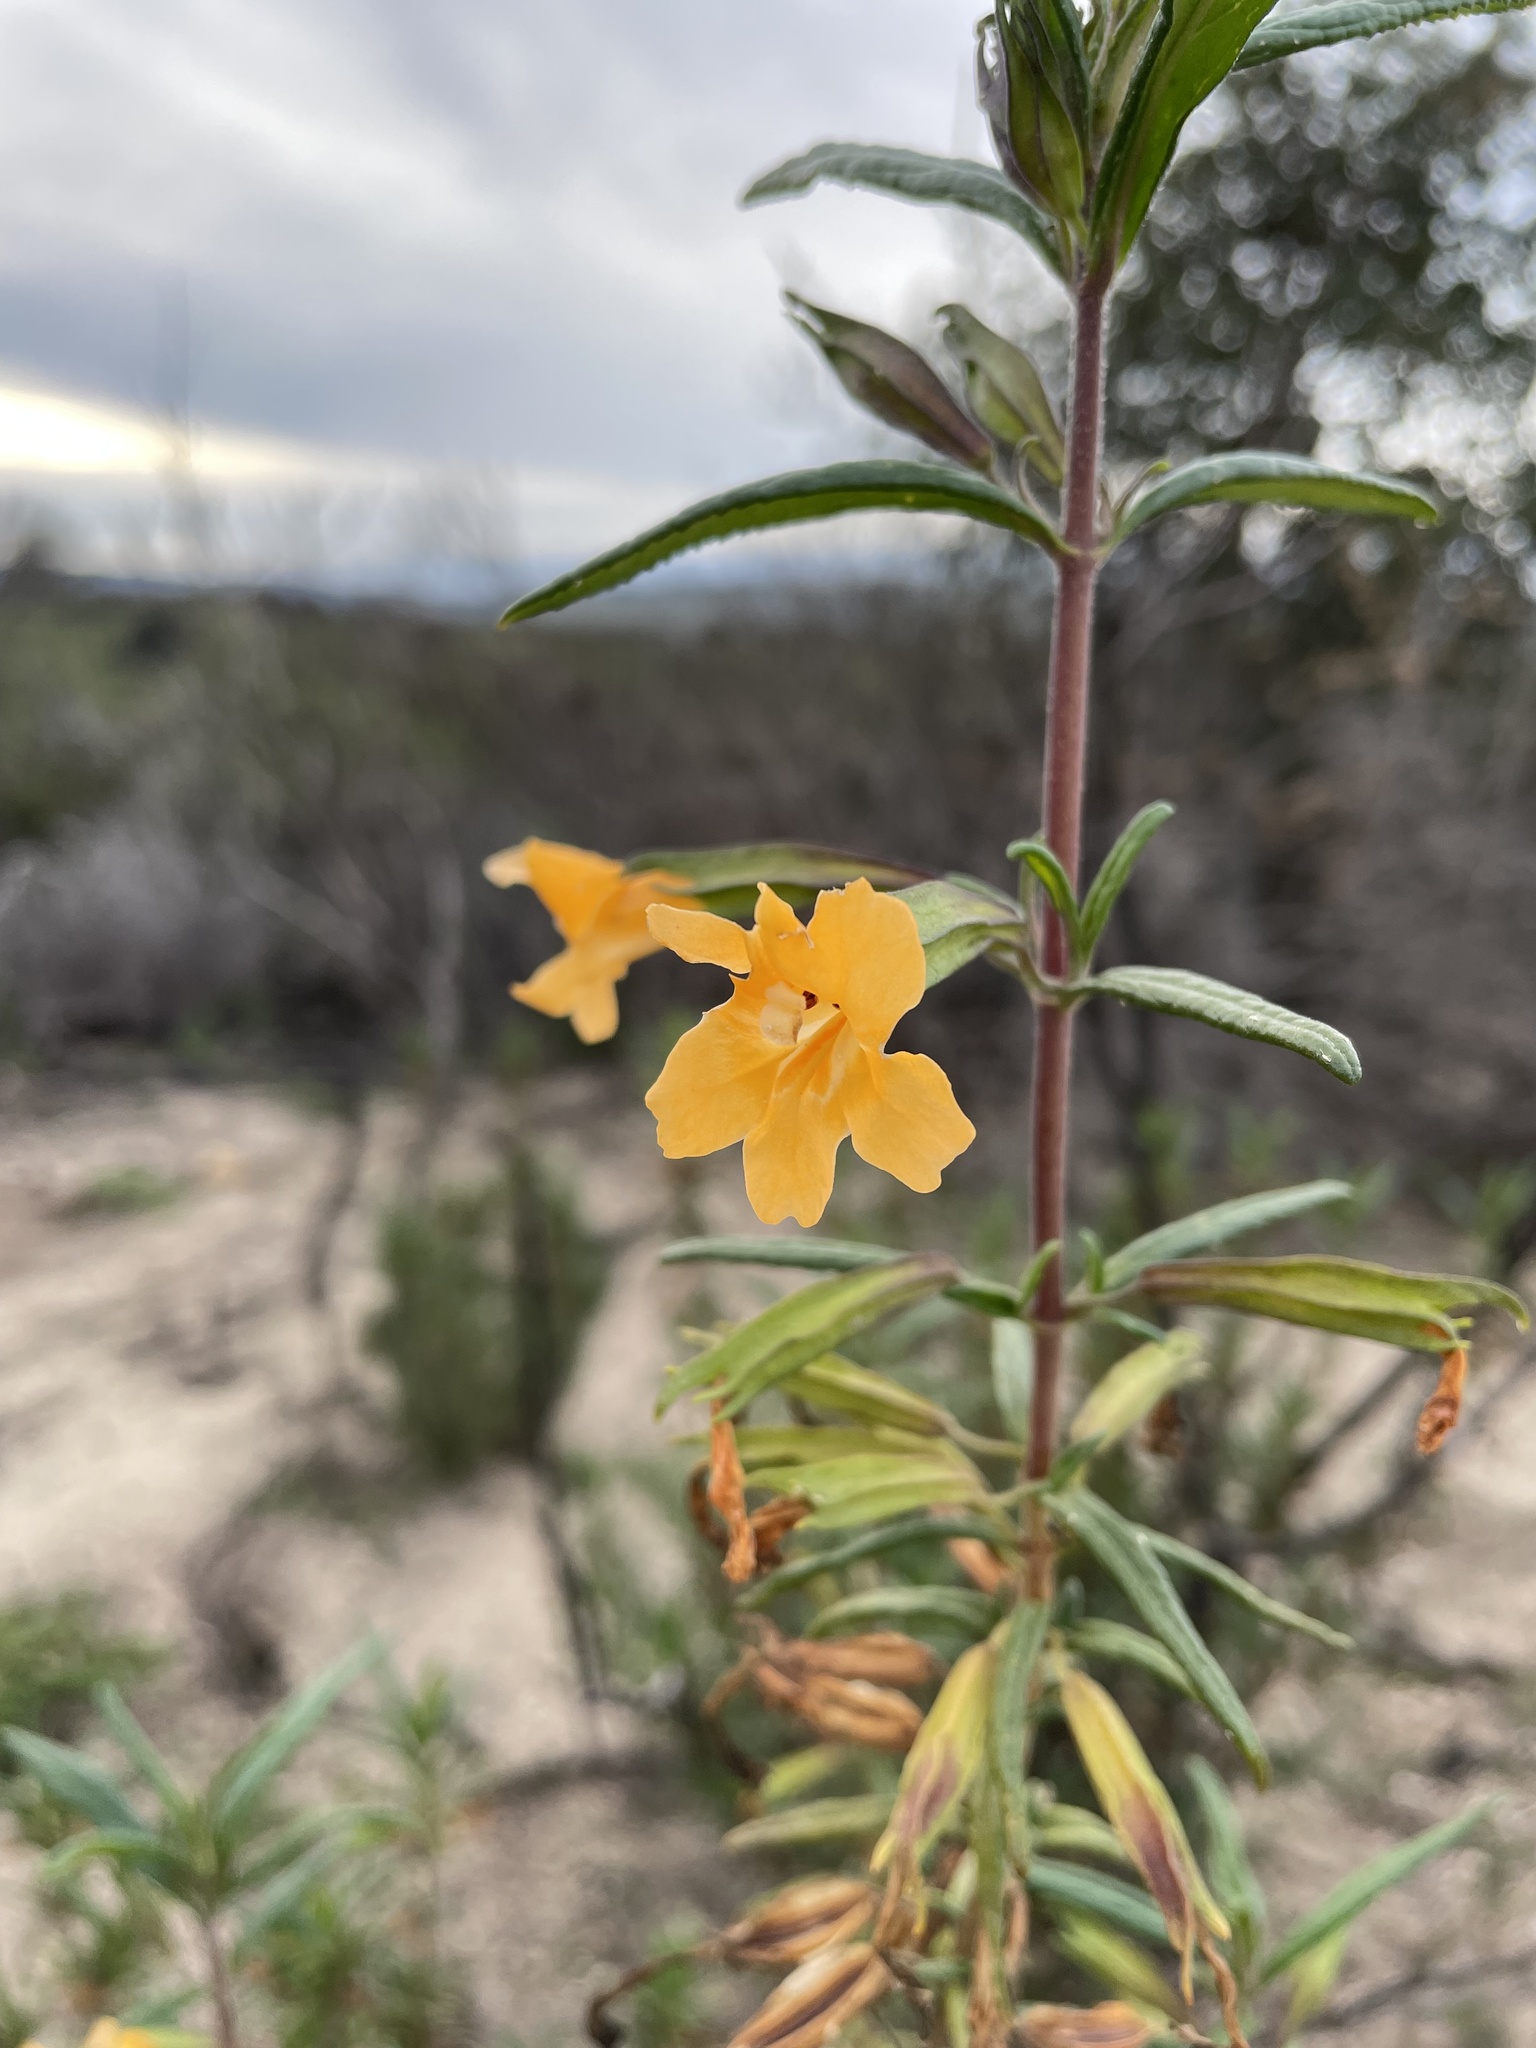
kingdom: Plantae
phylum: Tracheophyta
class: Magnoliopsida
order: Lamiales
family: Phrymaceae
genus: Diplacus
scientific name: Diplacus aurantiacus
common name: Bush monkey-flower
